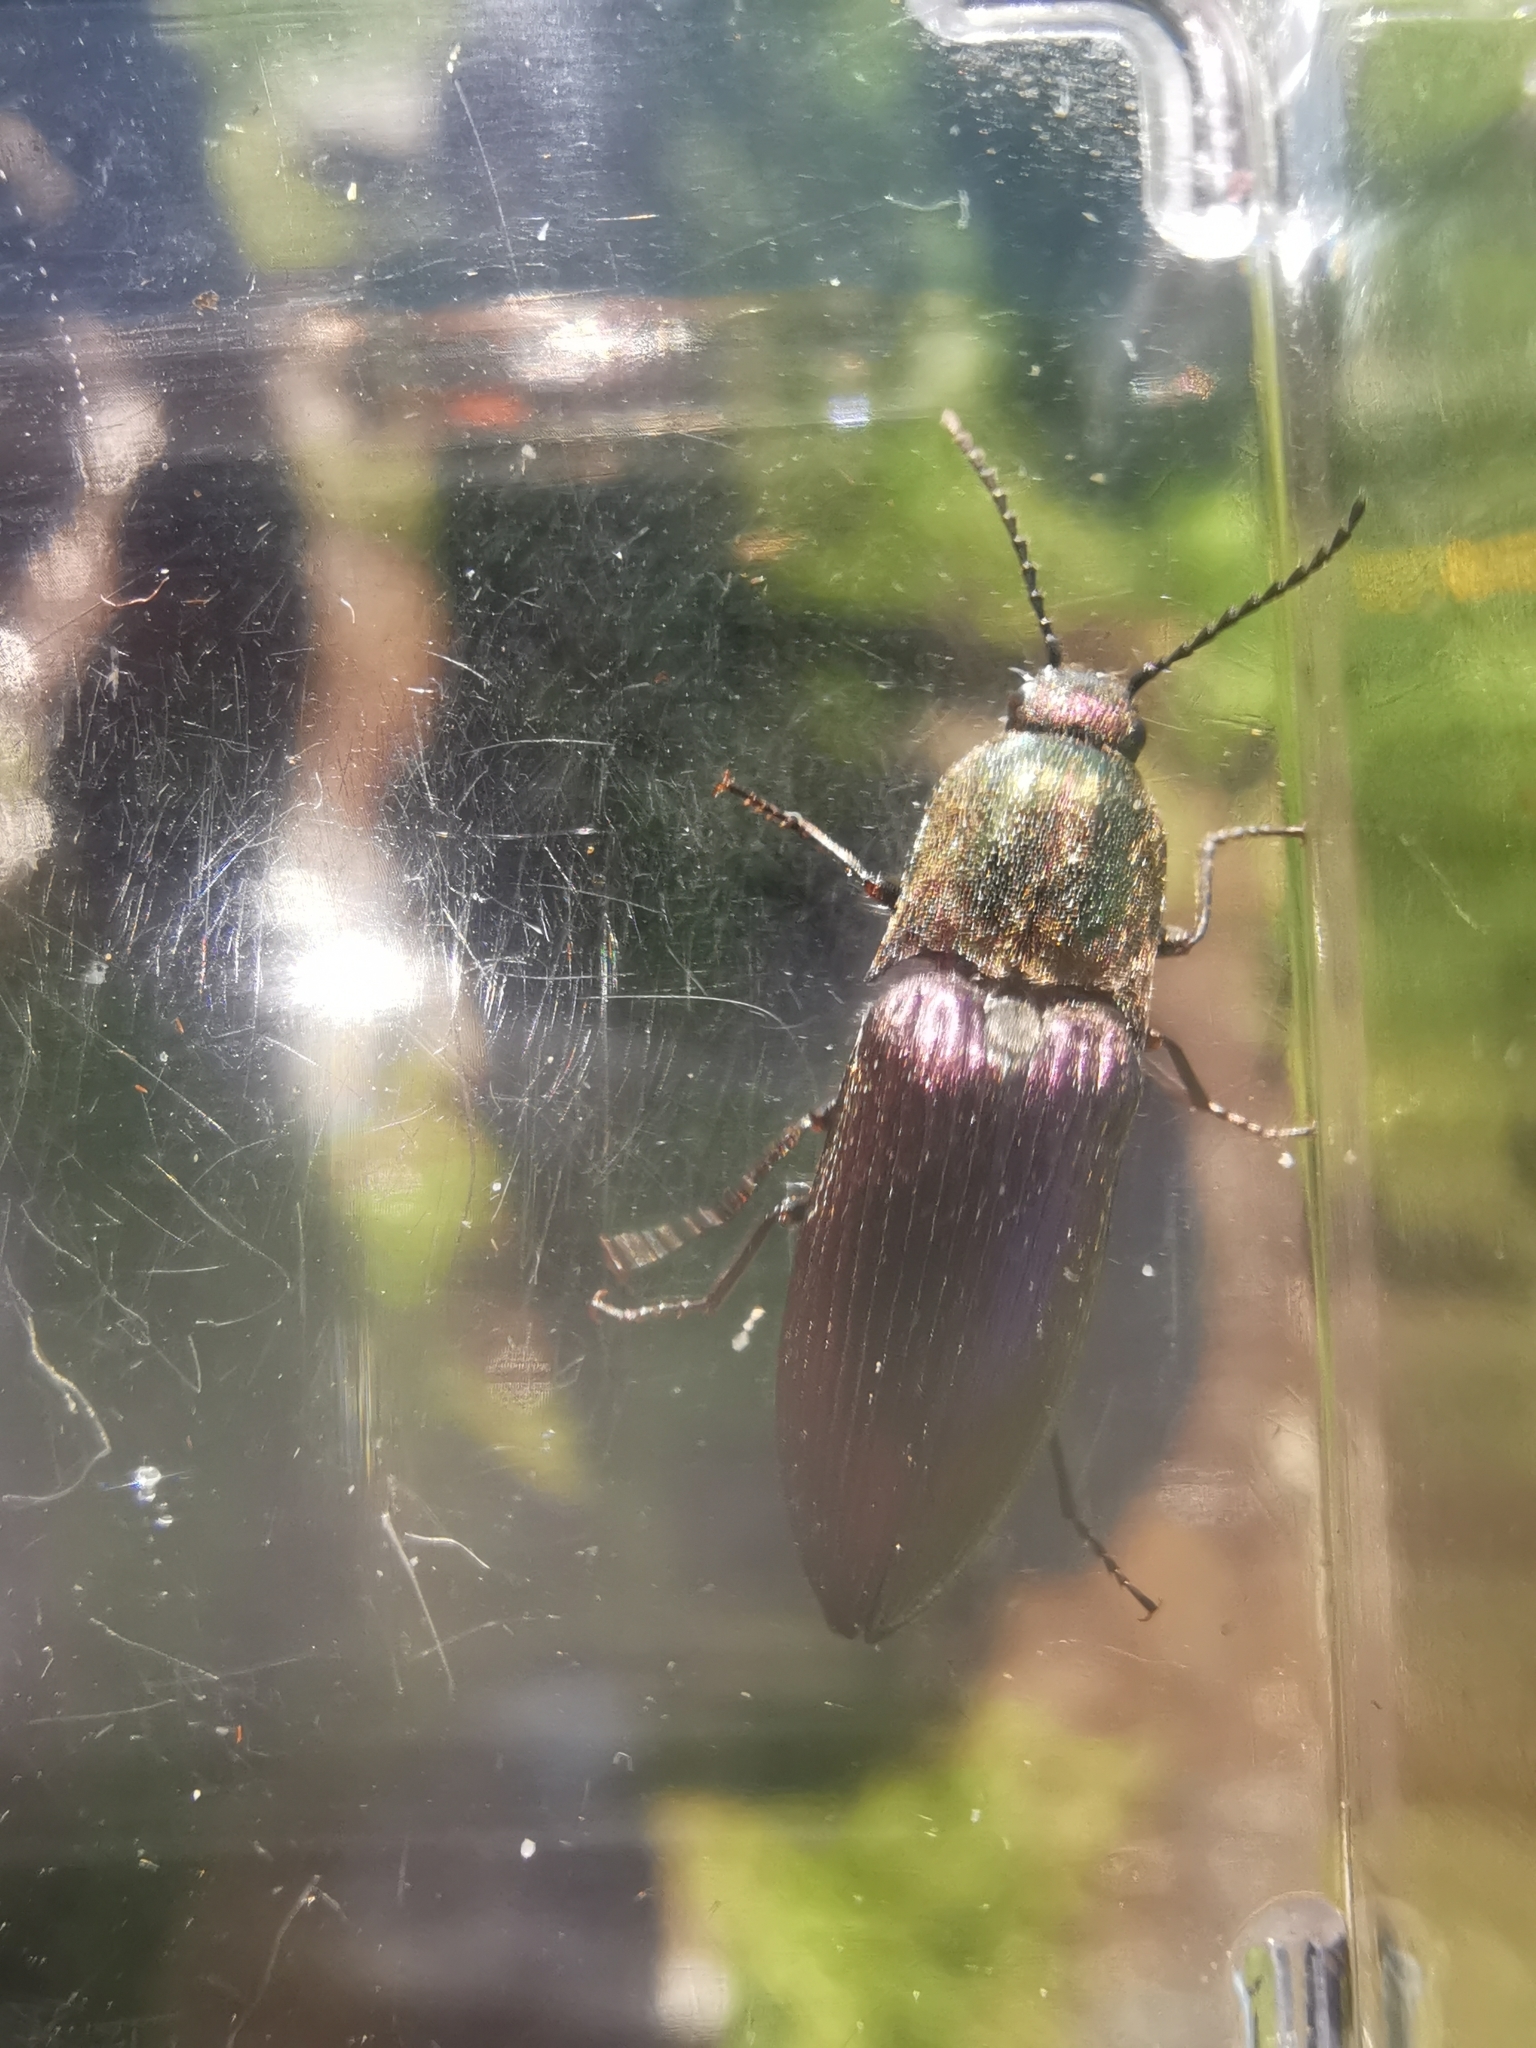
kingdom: Animalia
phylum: Arthropoda
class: Insecta
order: Coleoptera
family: Elateridae
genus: Ctenicera
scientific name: Ctenicera cuprea
